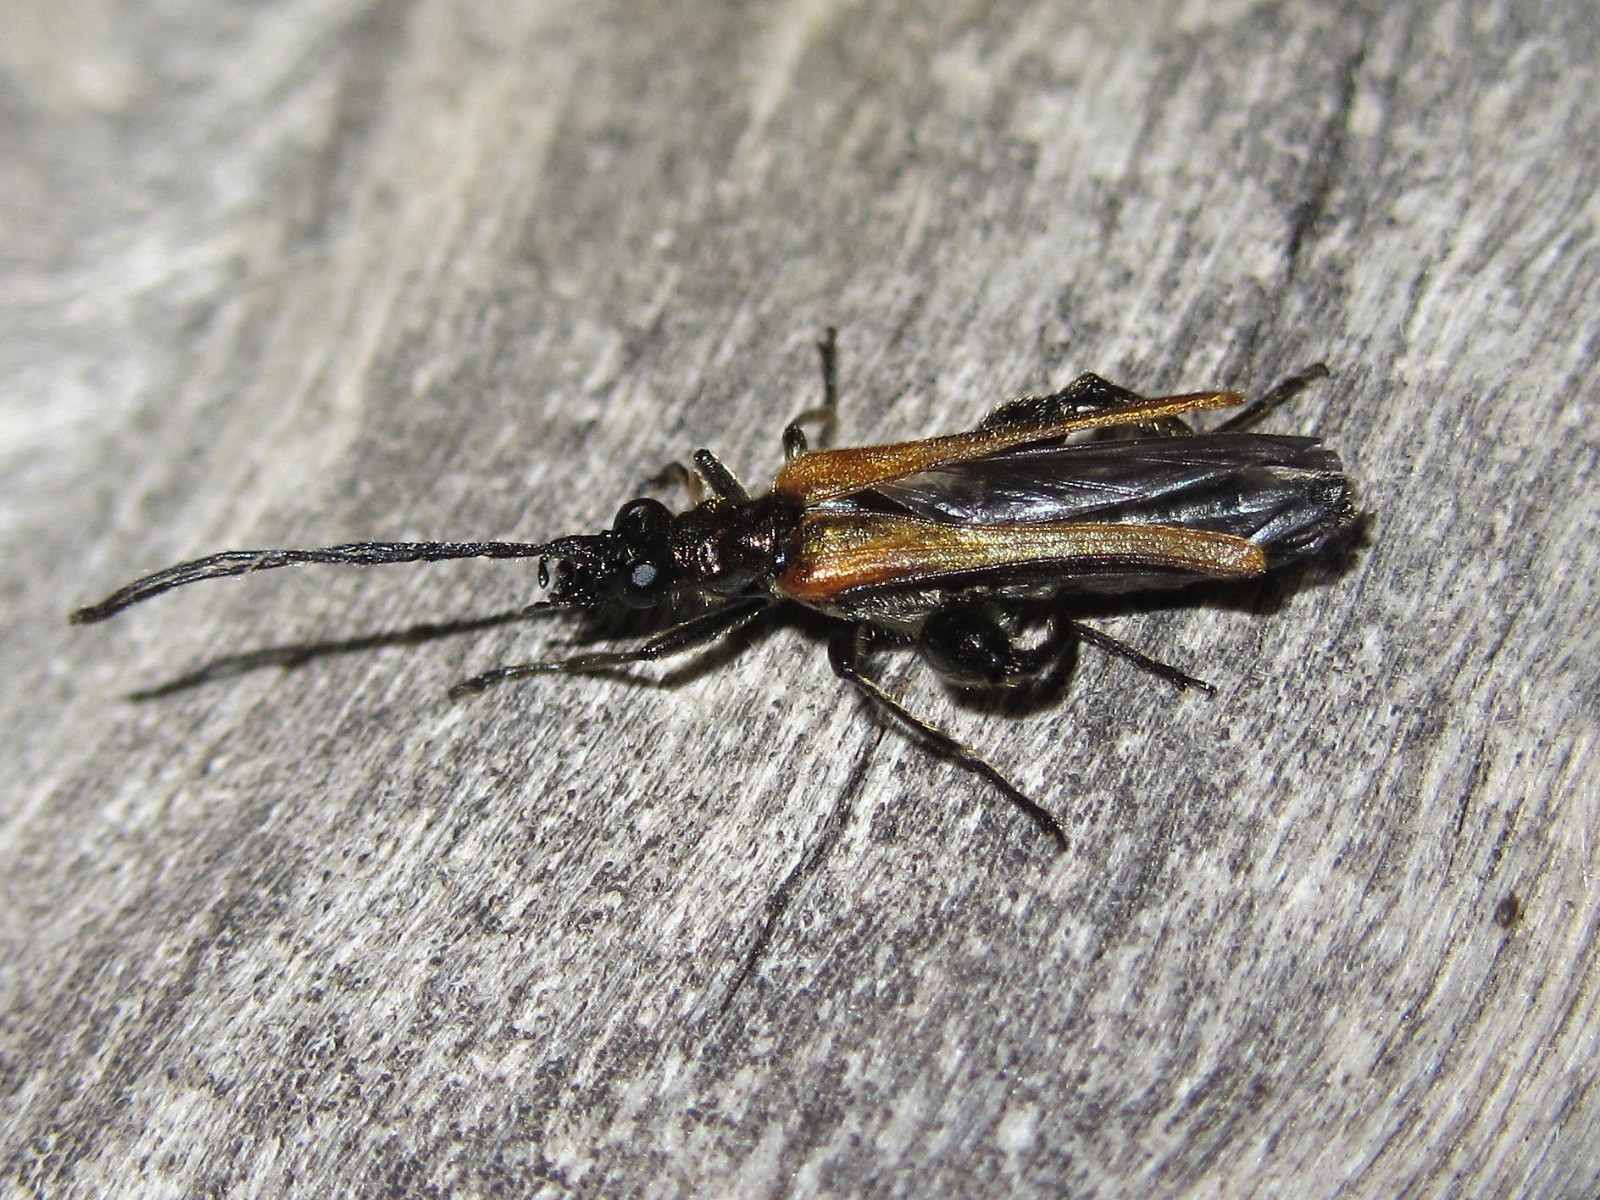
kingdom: Animalia
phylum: Arthropoda
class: Insecta
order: Coleoptera
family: Oedemeridae
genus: Oedemera
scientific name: Oedemera femorata
